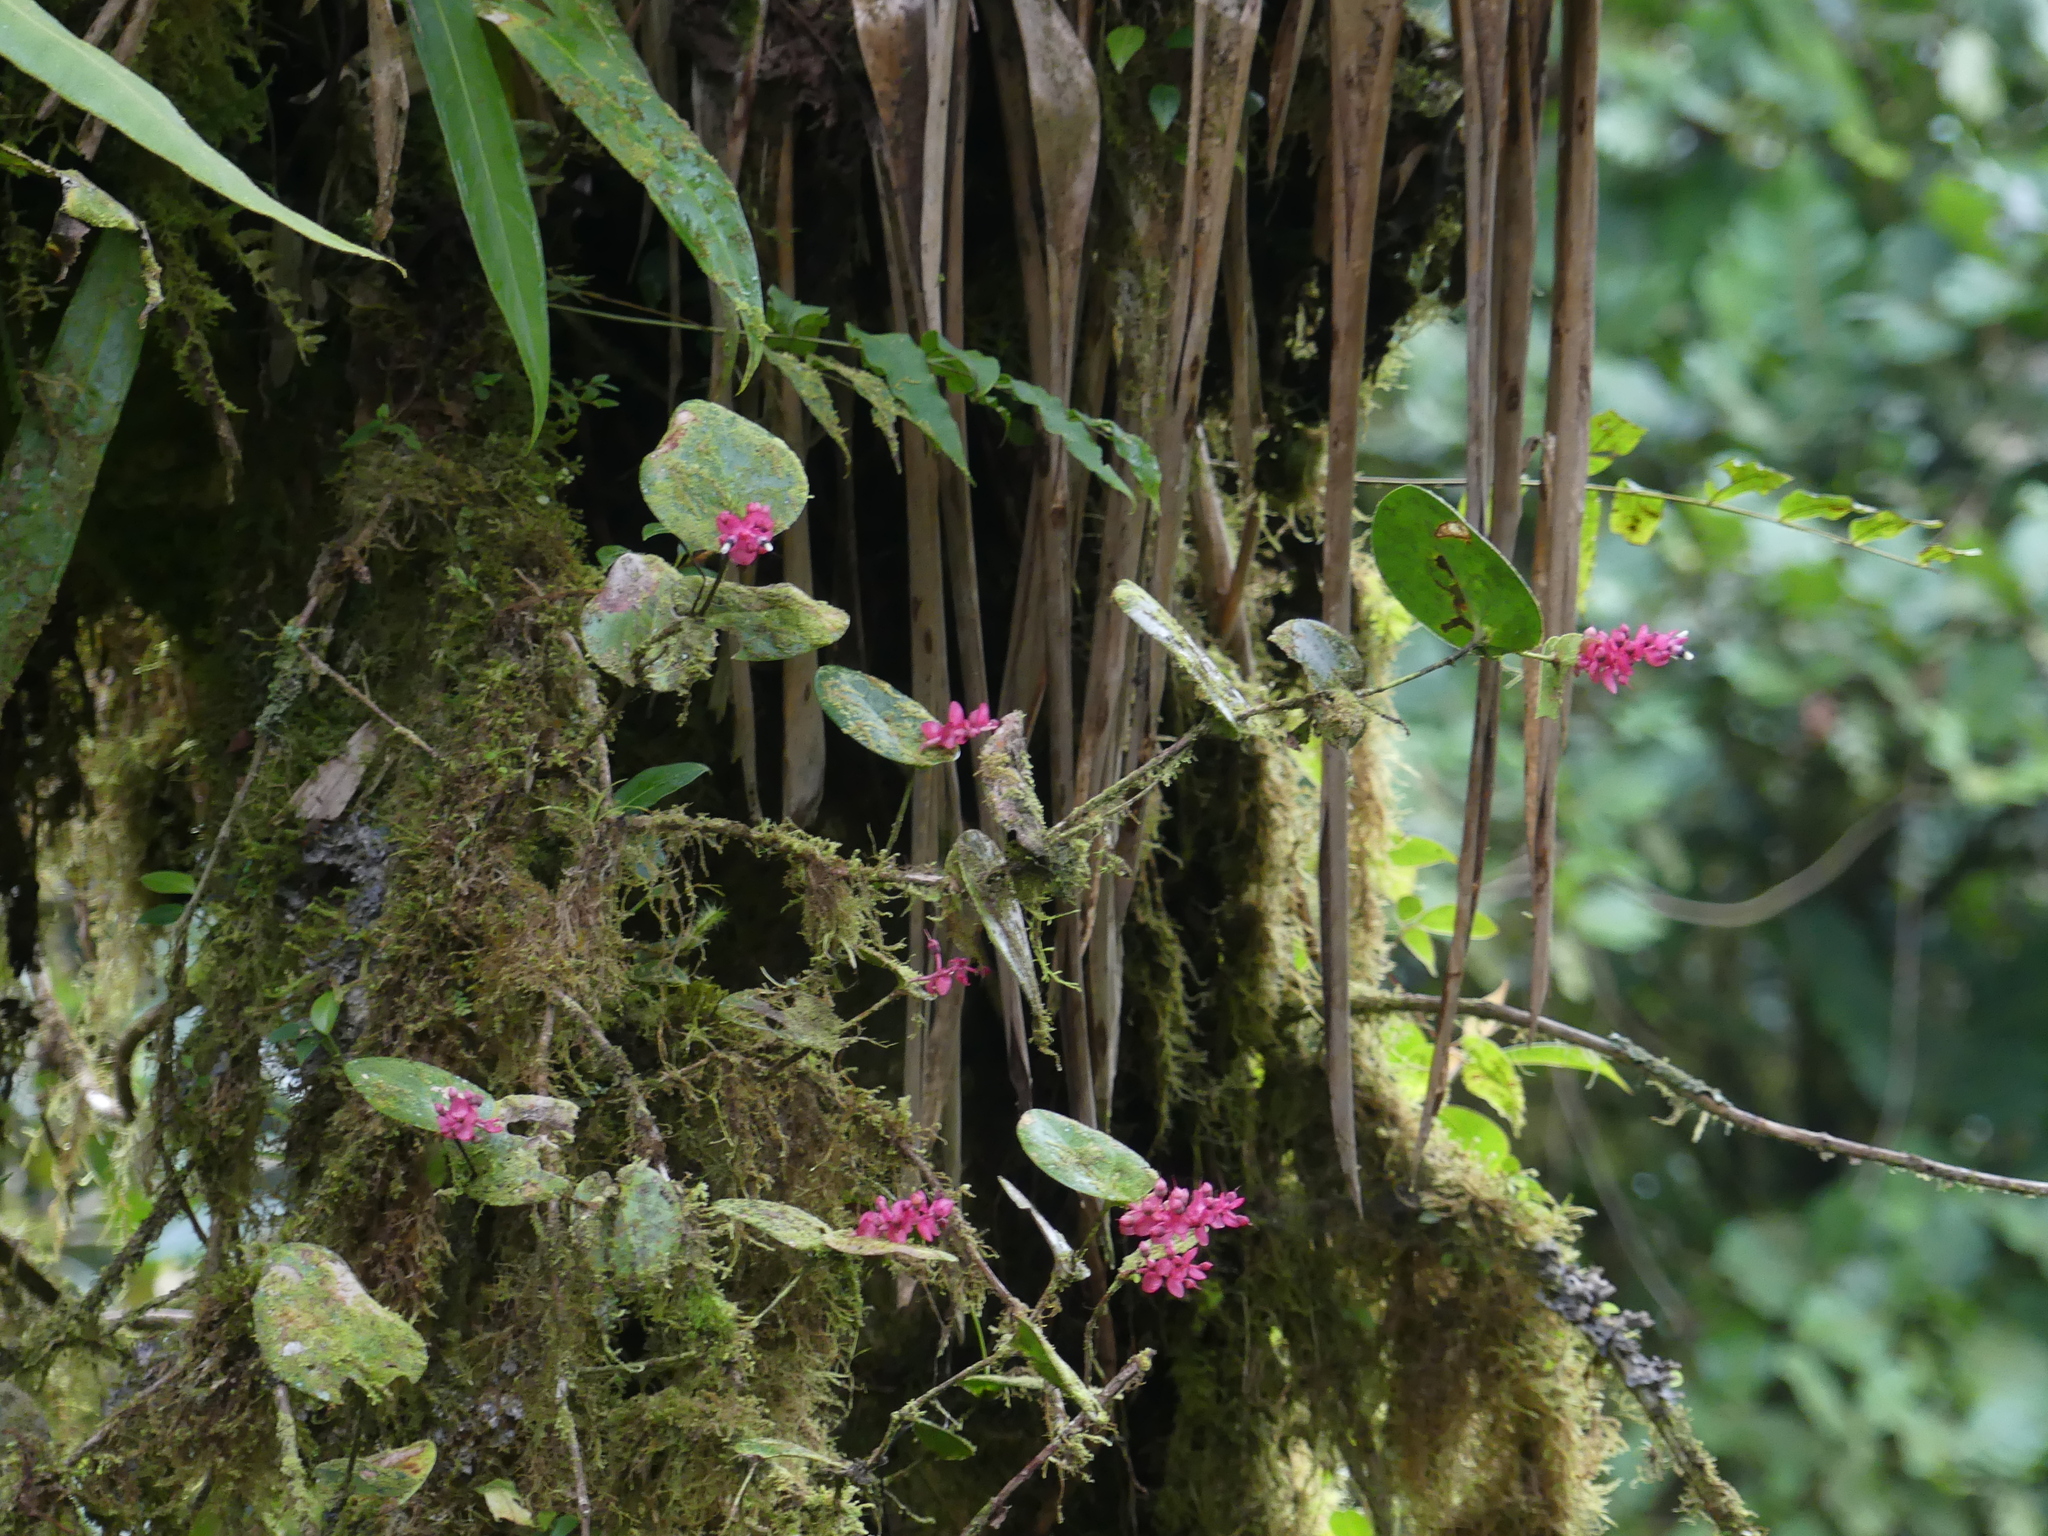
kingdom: Plantae
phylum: Tracheophyta
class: Magnoliopsida
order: Ericales
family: Ericaceae
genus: Cavendishia
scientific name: Cavendishia complectens
